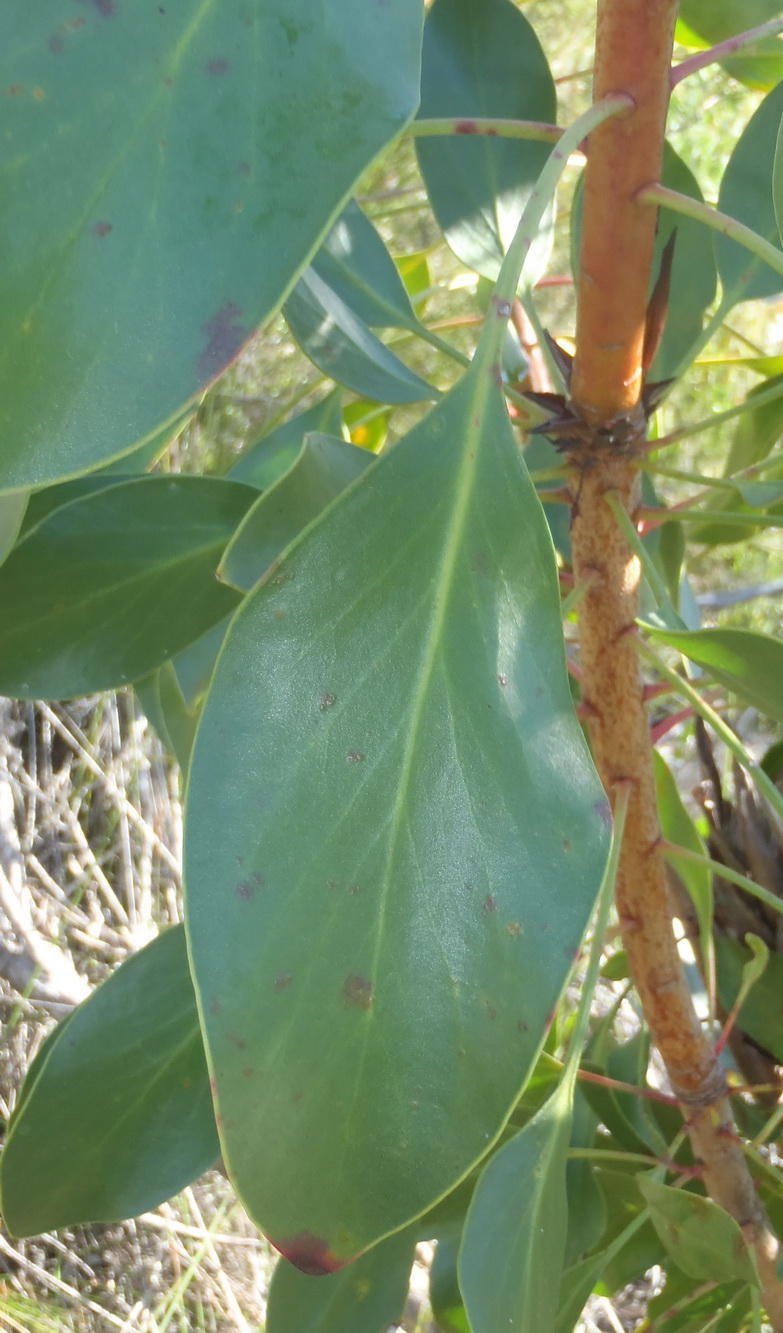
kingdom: Plantae
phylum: Tracheophyta
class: Magnoliopsida
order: Proteales
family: Proteaceae
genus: Protea
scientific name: Protea cynaroides
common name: King protea
